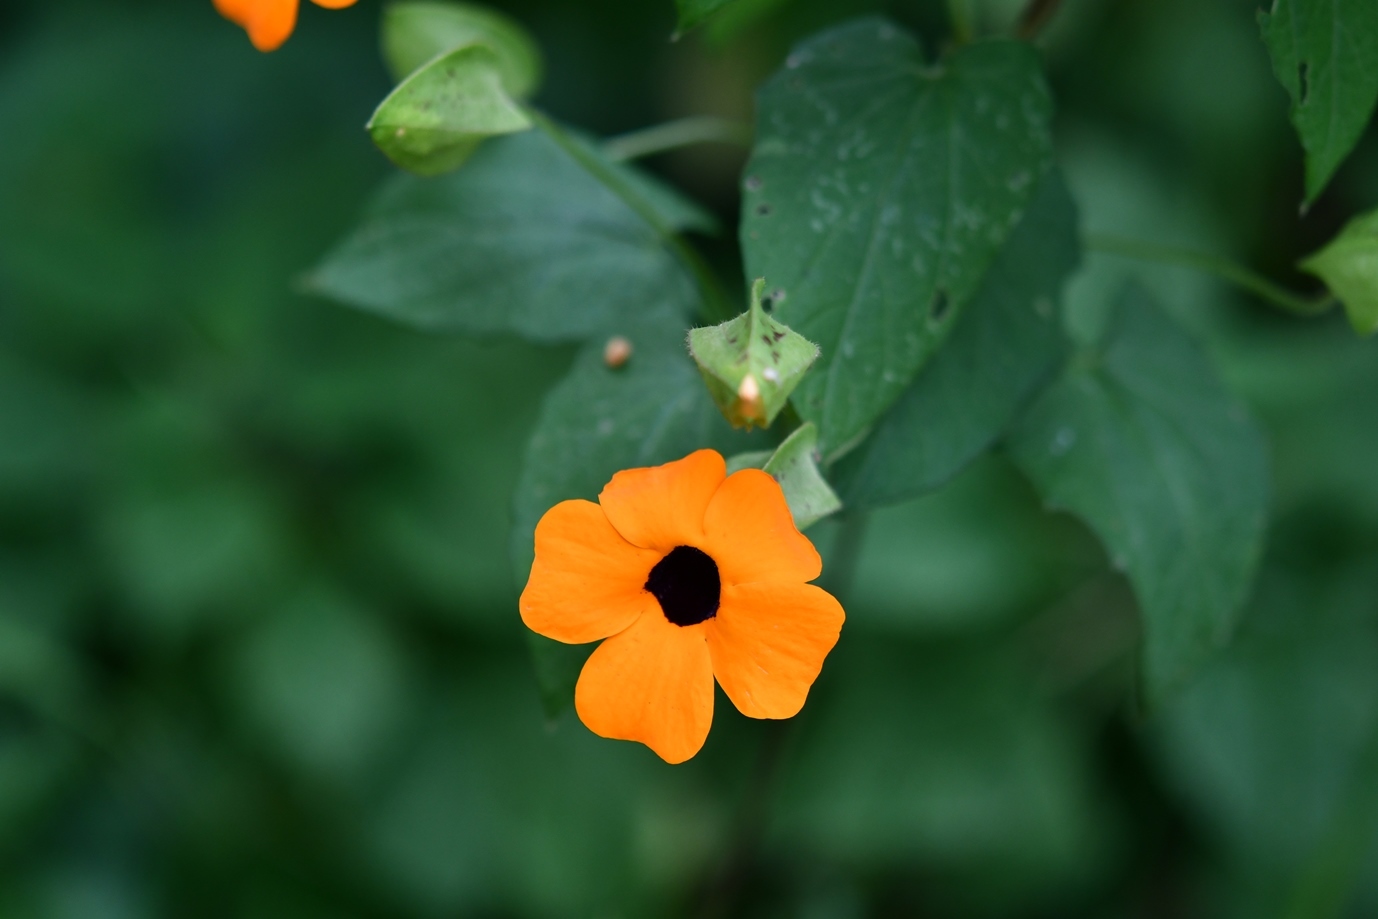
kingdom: Plantae
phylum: Tracheophyta
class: Magnoliopsida
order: Lamiales
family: Acanthaceae
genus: Thunbergia
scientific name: Thunbergia alata
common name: Blackeyed susan vine
